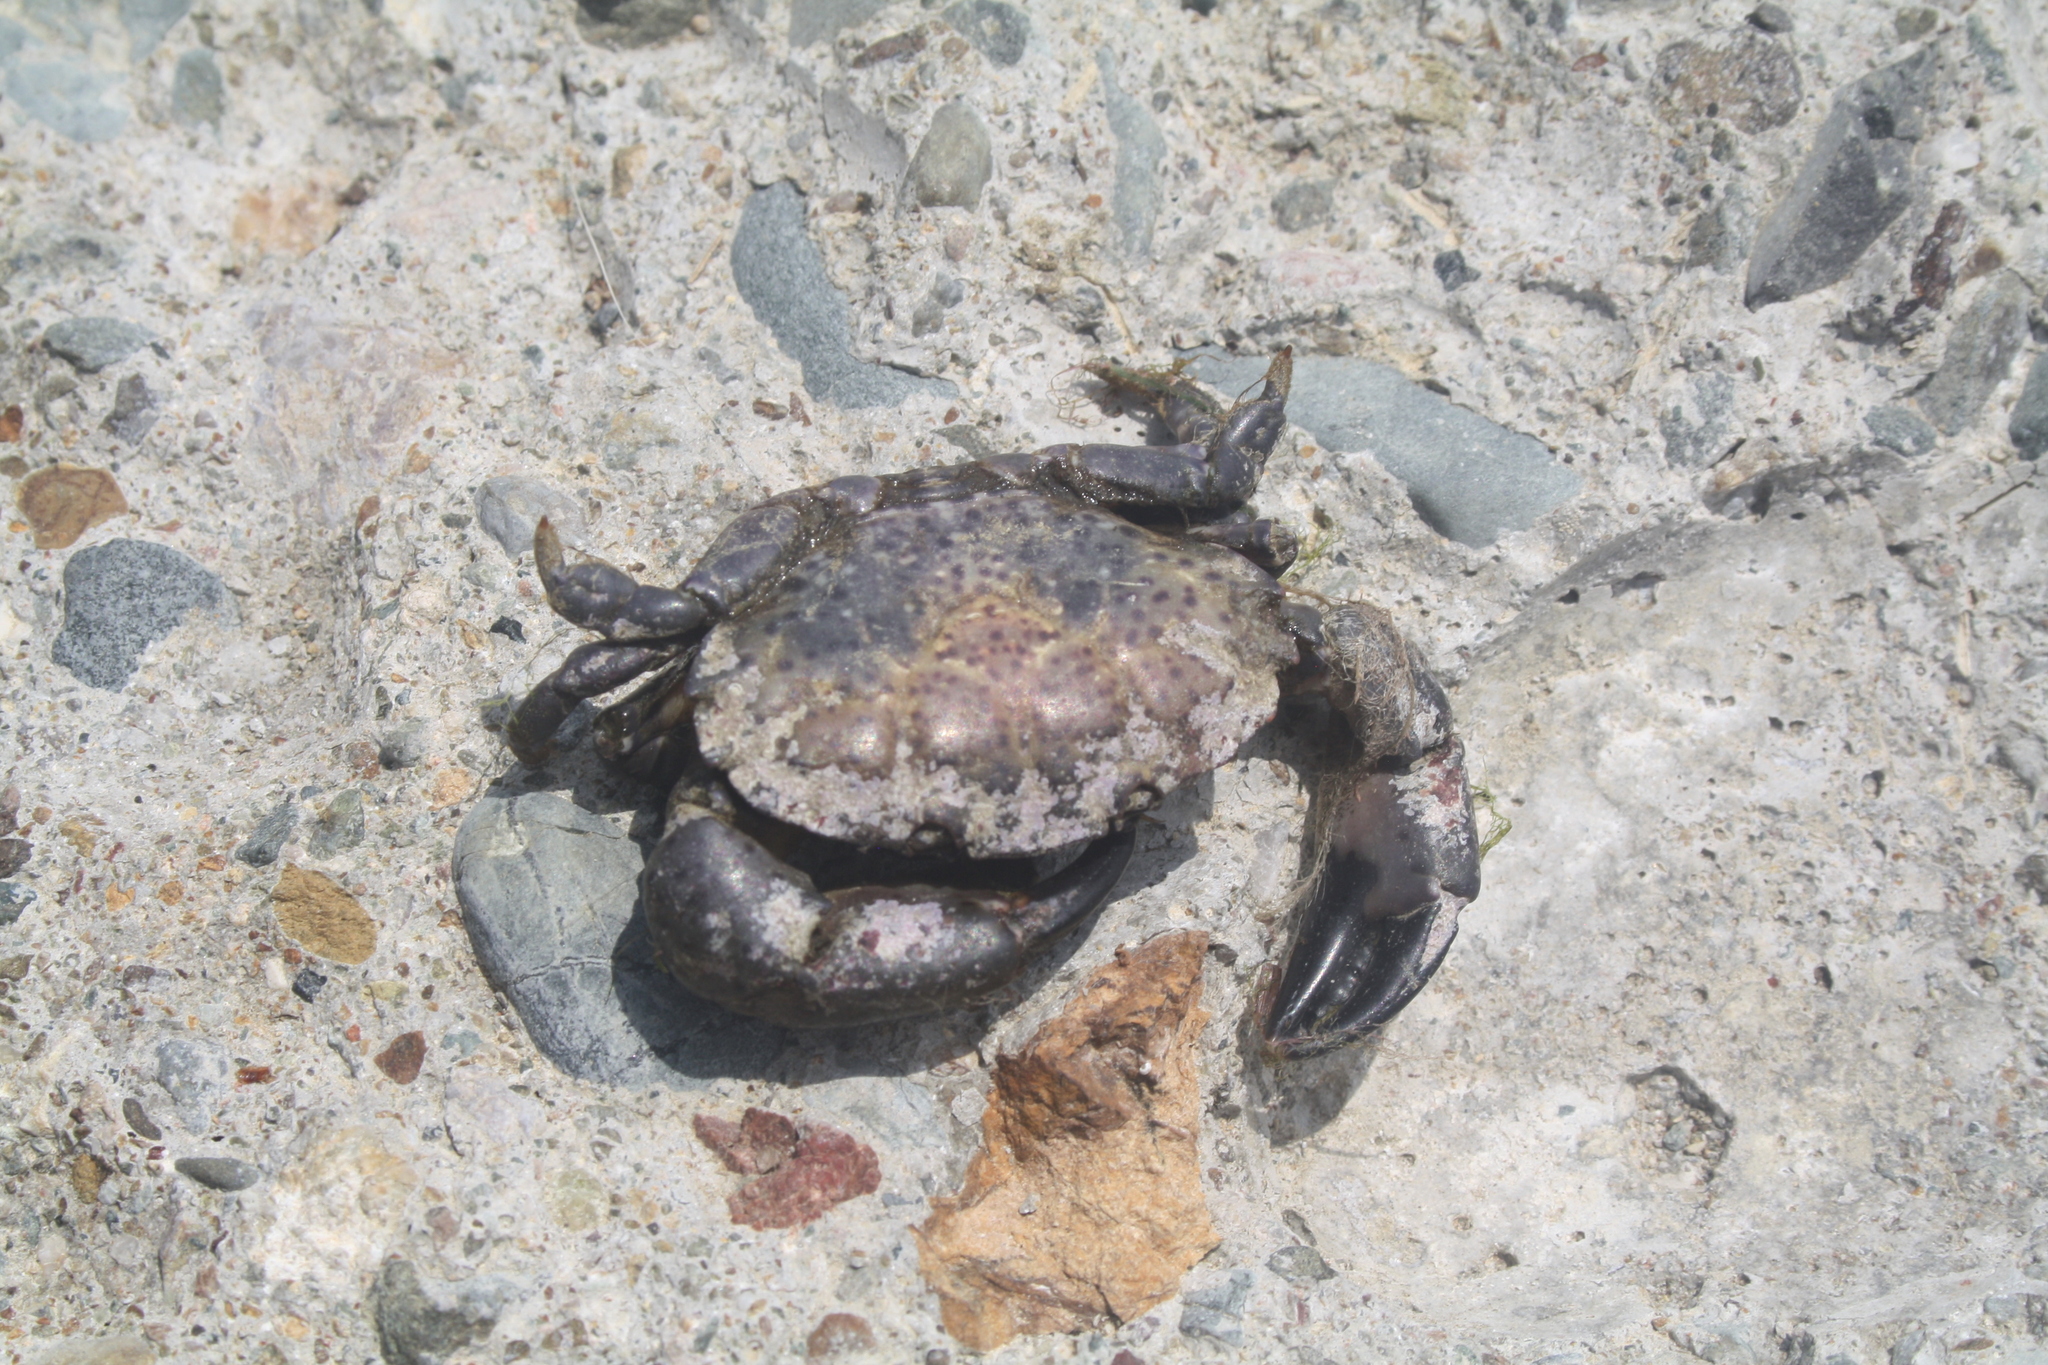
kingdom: Animalia
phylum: Arthropoda
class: Malacostraca
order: Decapoda
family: Xanthidae
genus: Xantho
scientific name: Xantho poressa
